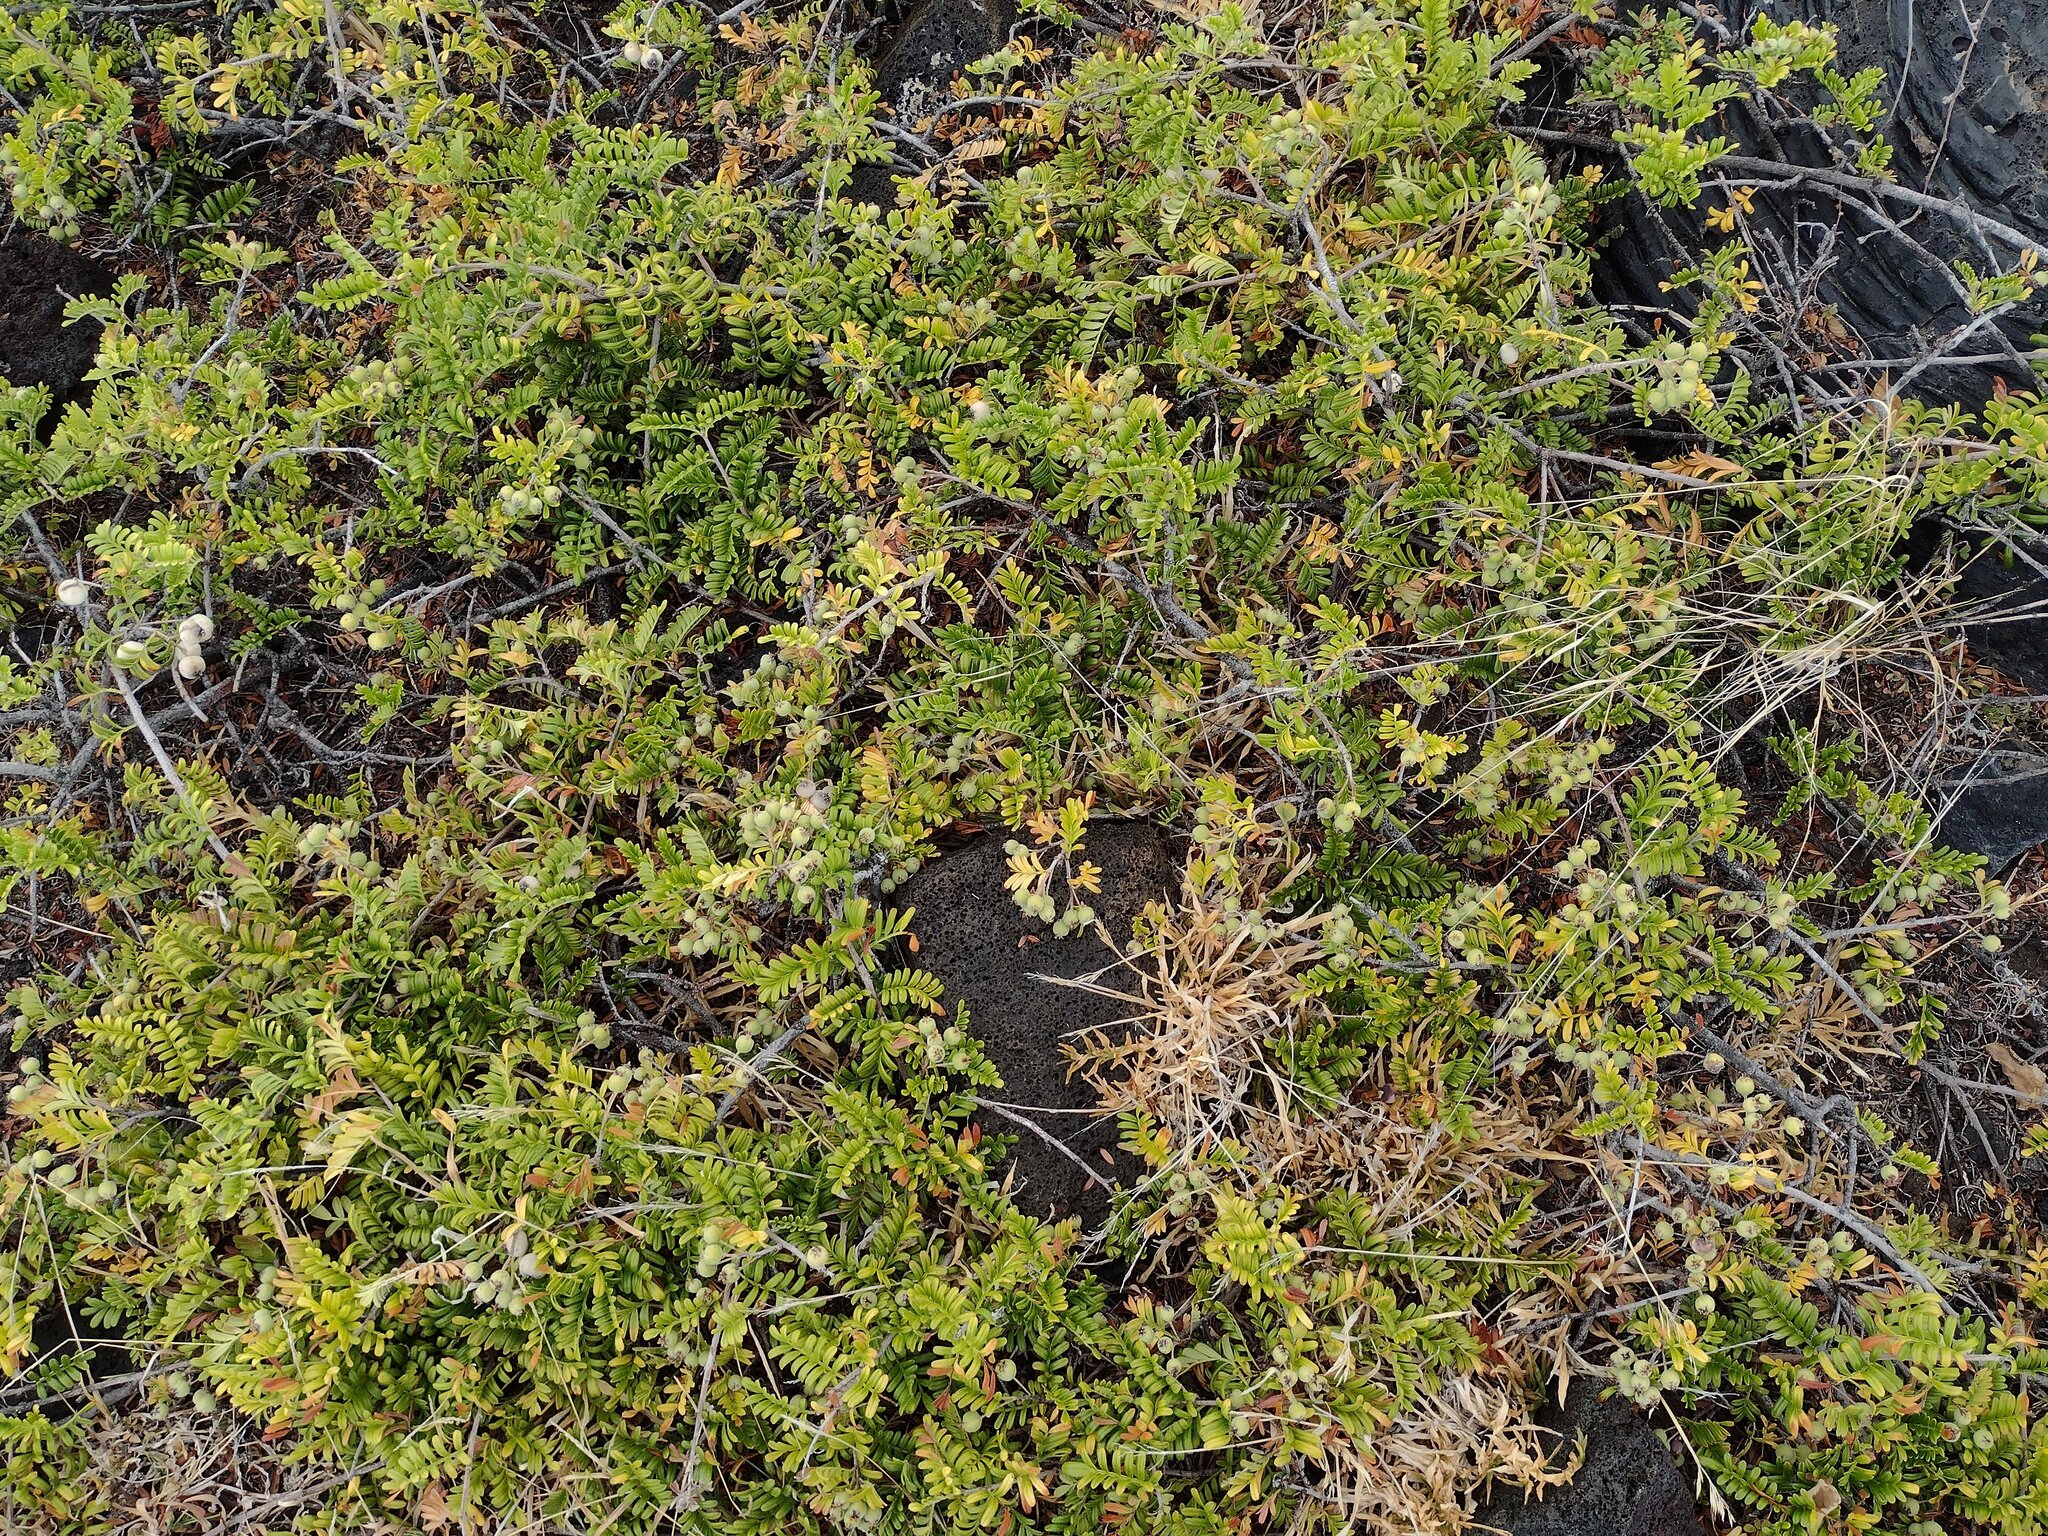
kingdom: Plantae
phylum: Tracheophyta
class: Magnoliopsida
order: Rosales
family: Rosaceae
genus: Osteomeles
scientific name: Osteomeles anthyllidifolia
